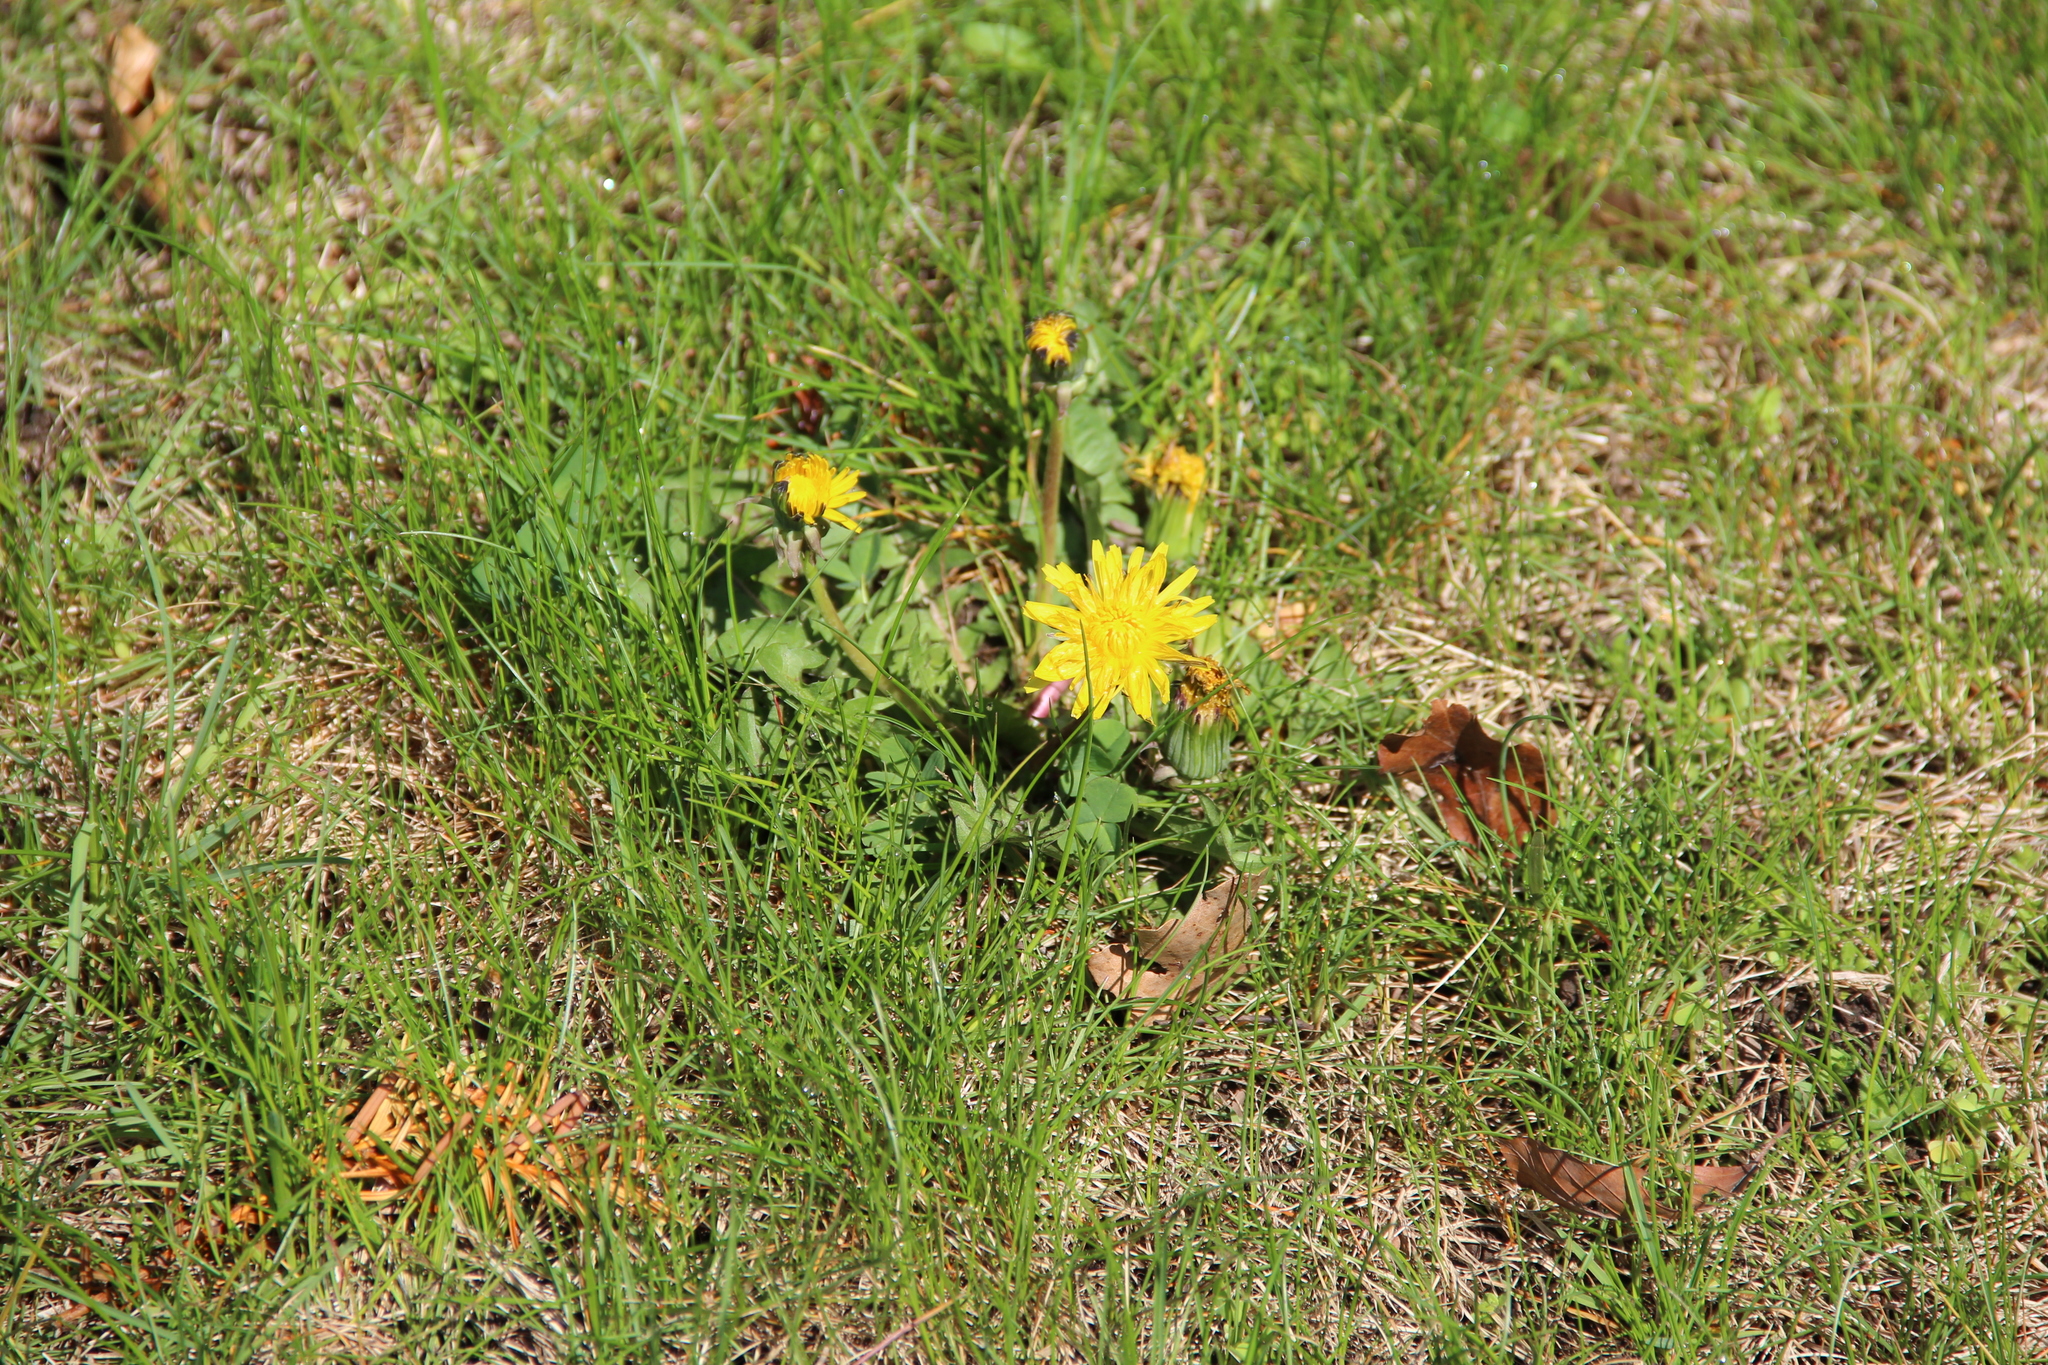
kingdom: Plantae
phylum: Tracheophyta
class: Magnoliopsida
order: Asterales
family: Asteraceae
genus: Taraxacum
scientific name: Taraxacum officinale
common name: Common dandelion
